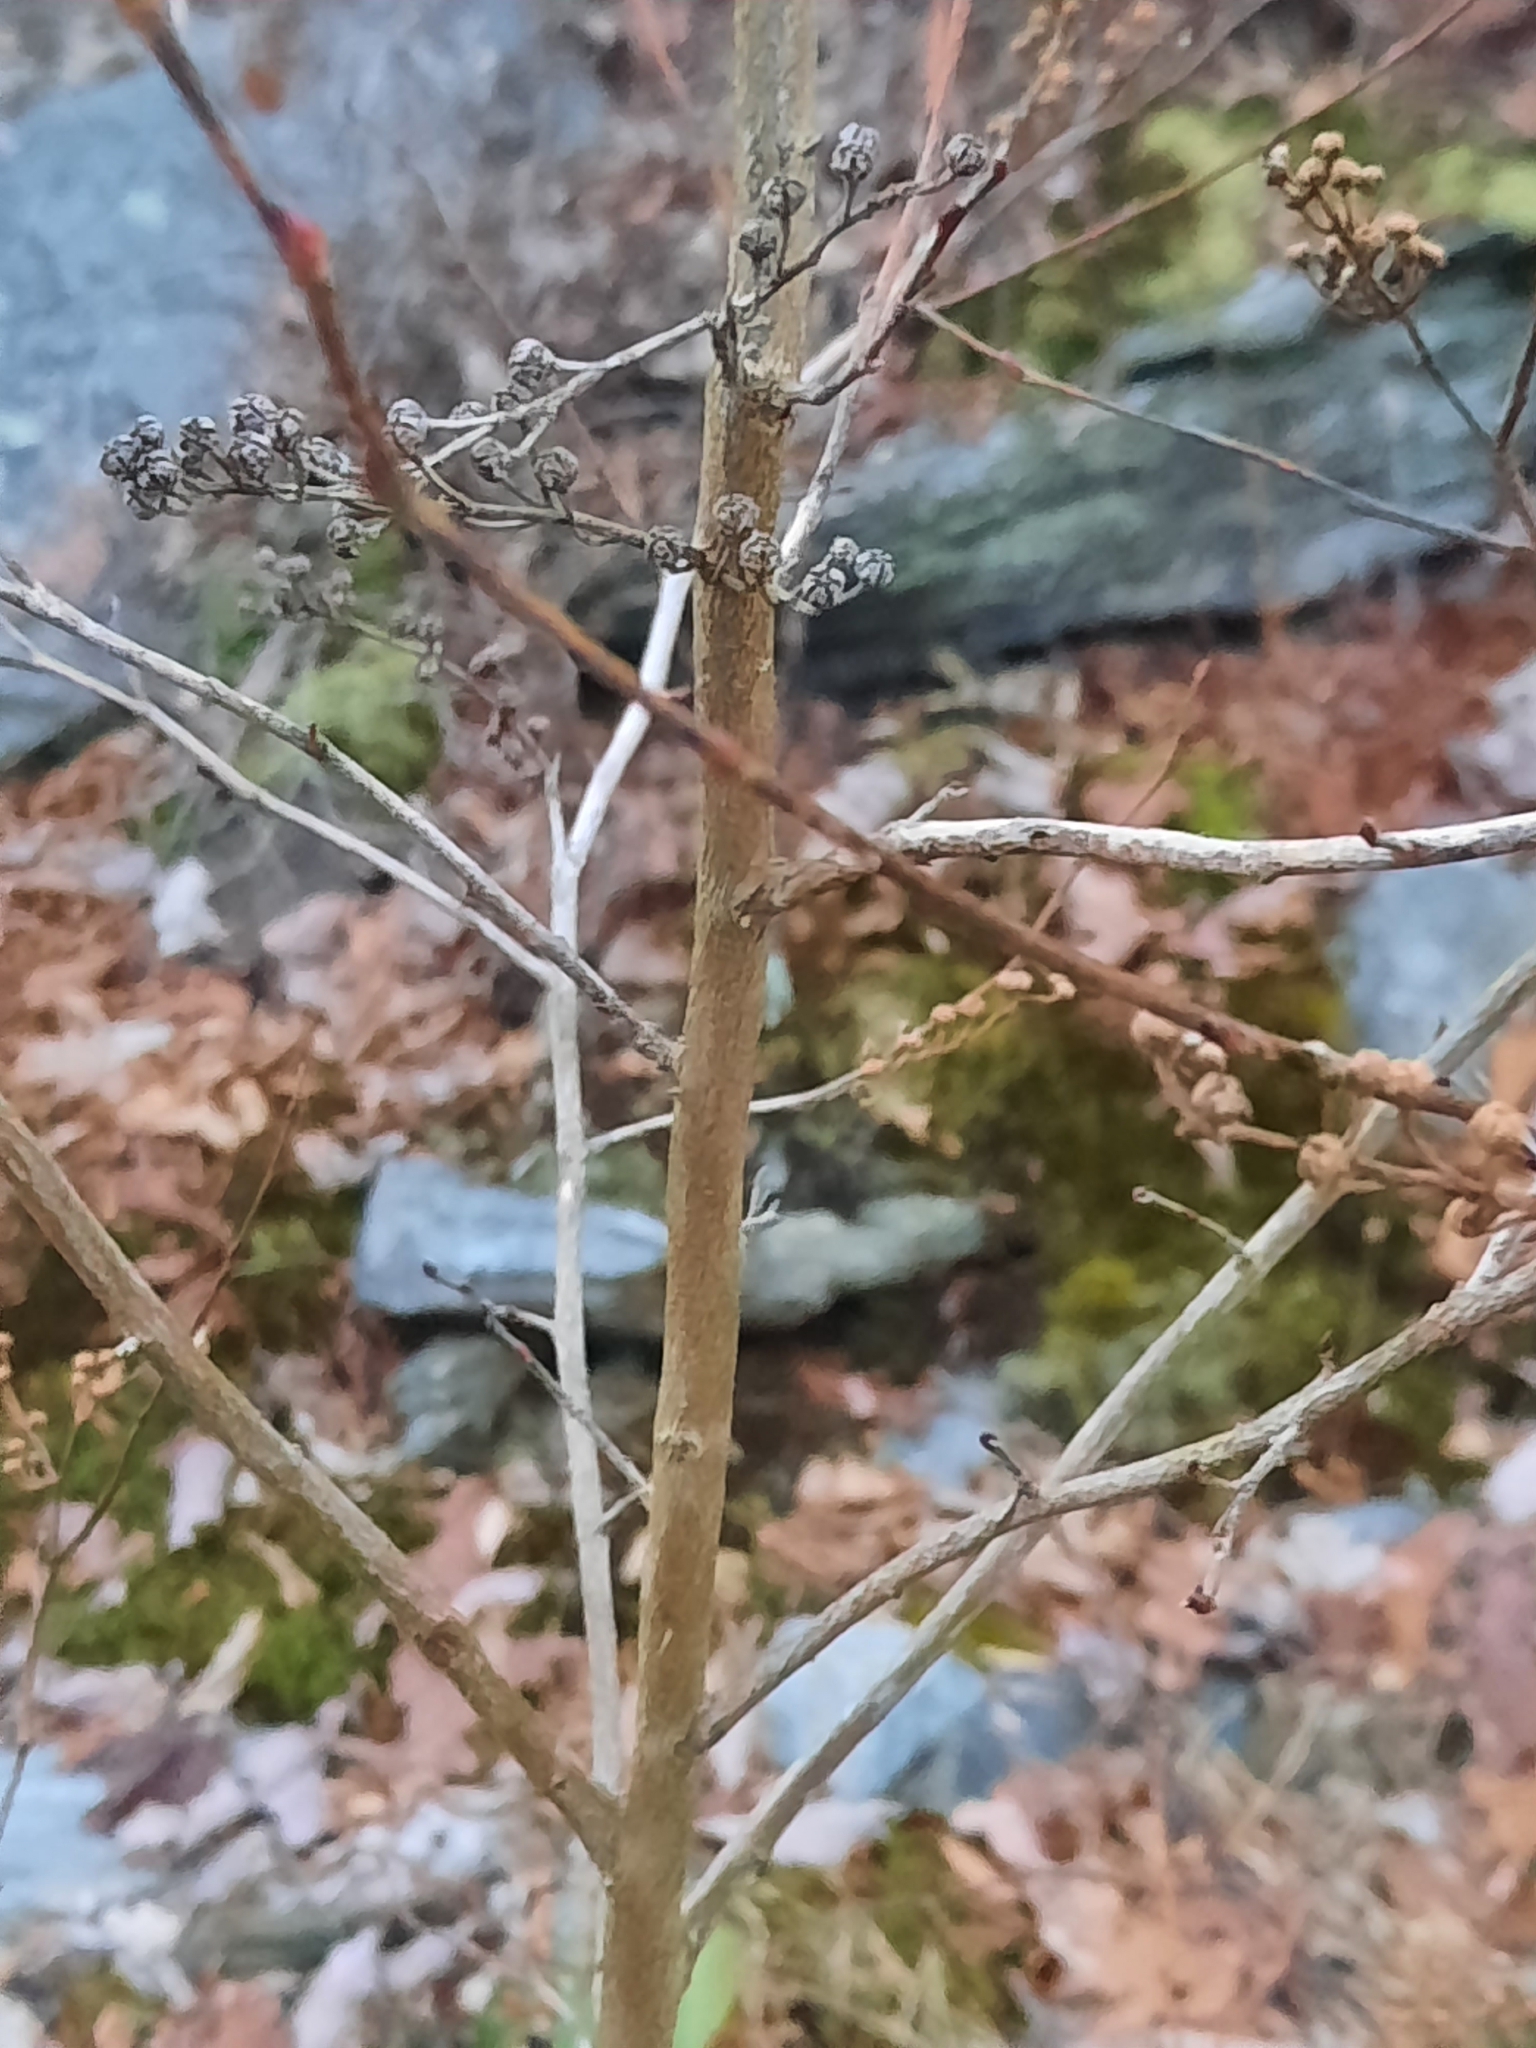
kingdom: Plantae
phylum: Tracheophyta
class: Magnoliopsida
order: Ericales
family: Ericaceae
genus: Lyonia
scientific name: Lyonia ligustrina
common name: Maleberry
